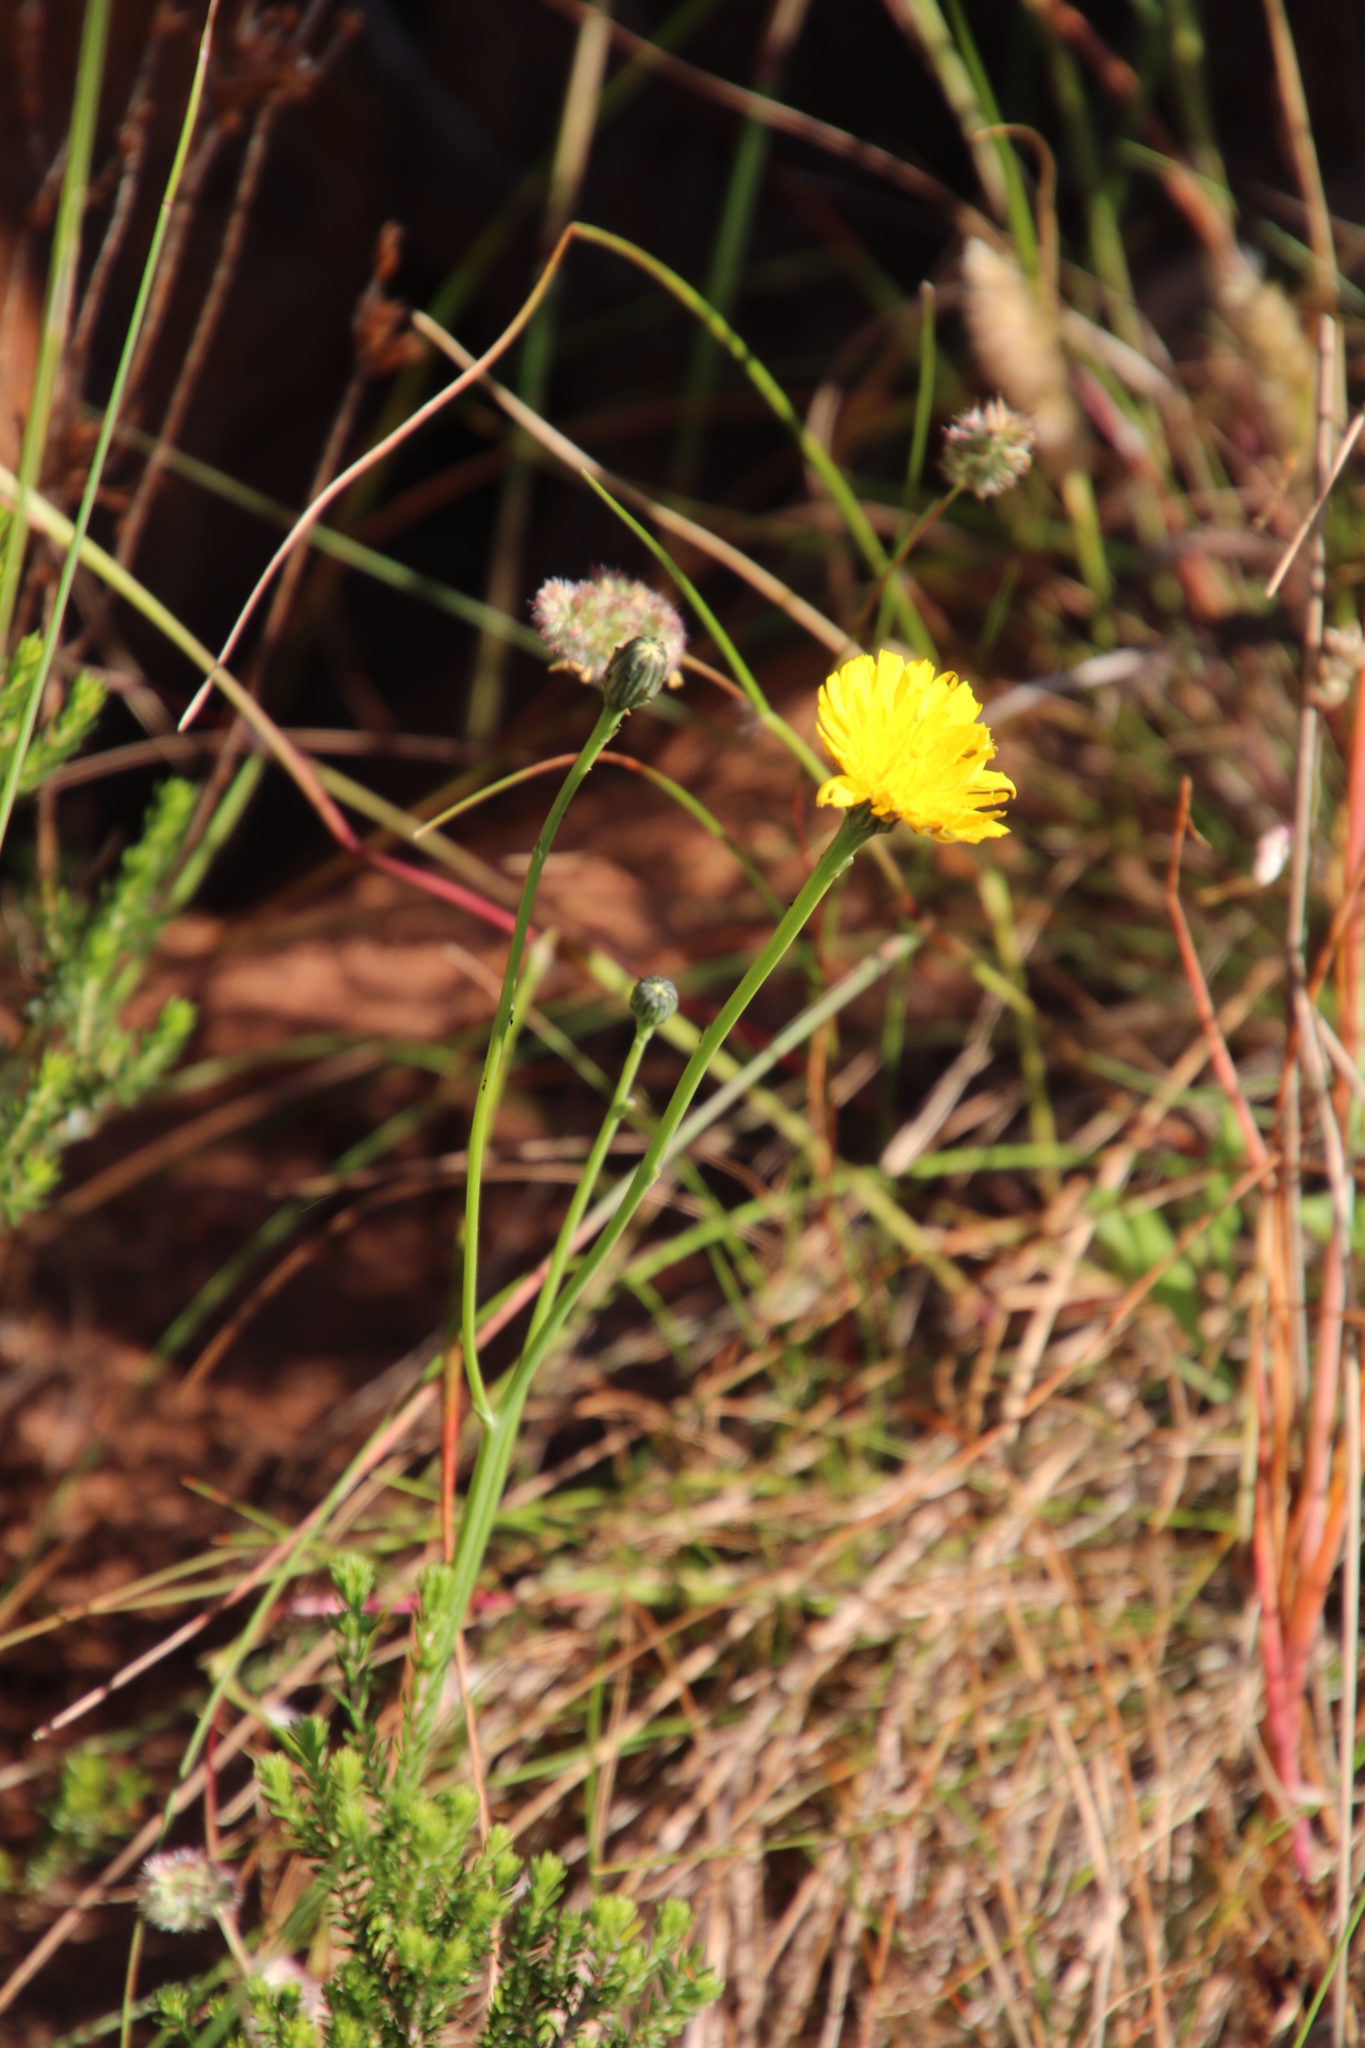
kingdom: Plantae
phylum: Tracheophyta
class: Magnoliopsida
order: Asterales
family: Asteraceae
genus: Hypochaeris
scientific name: Hypochaeris radicata
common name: Flatweed
